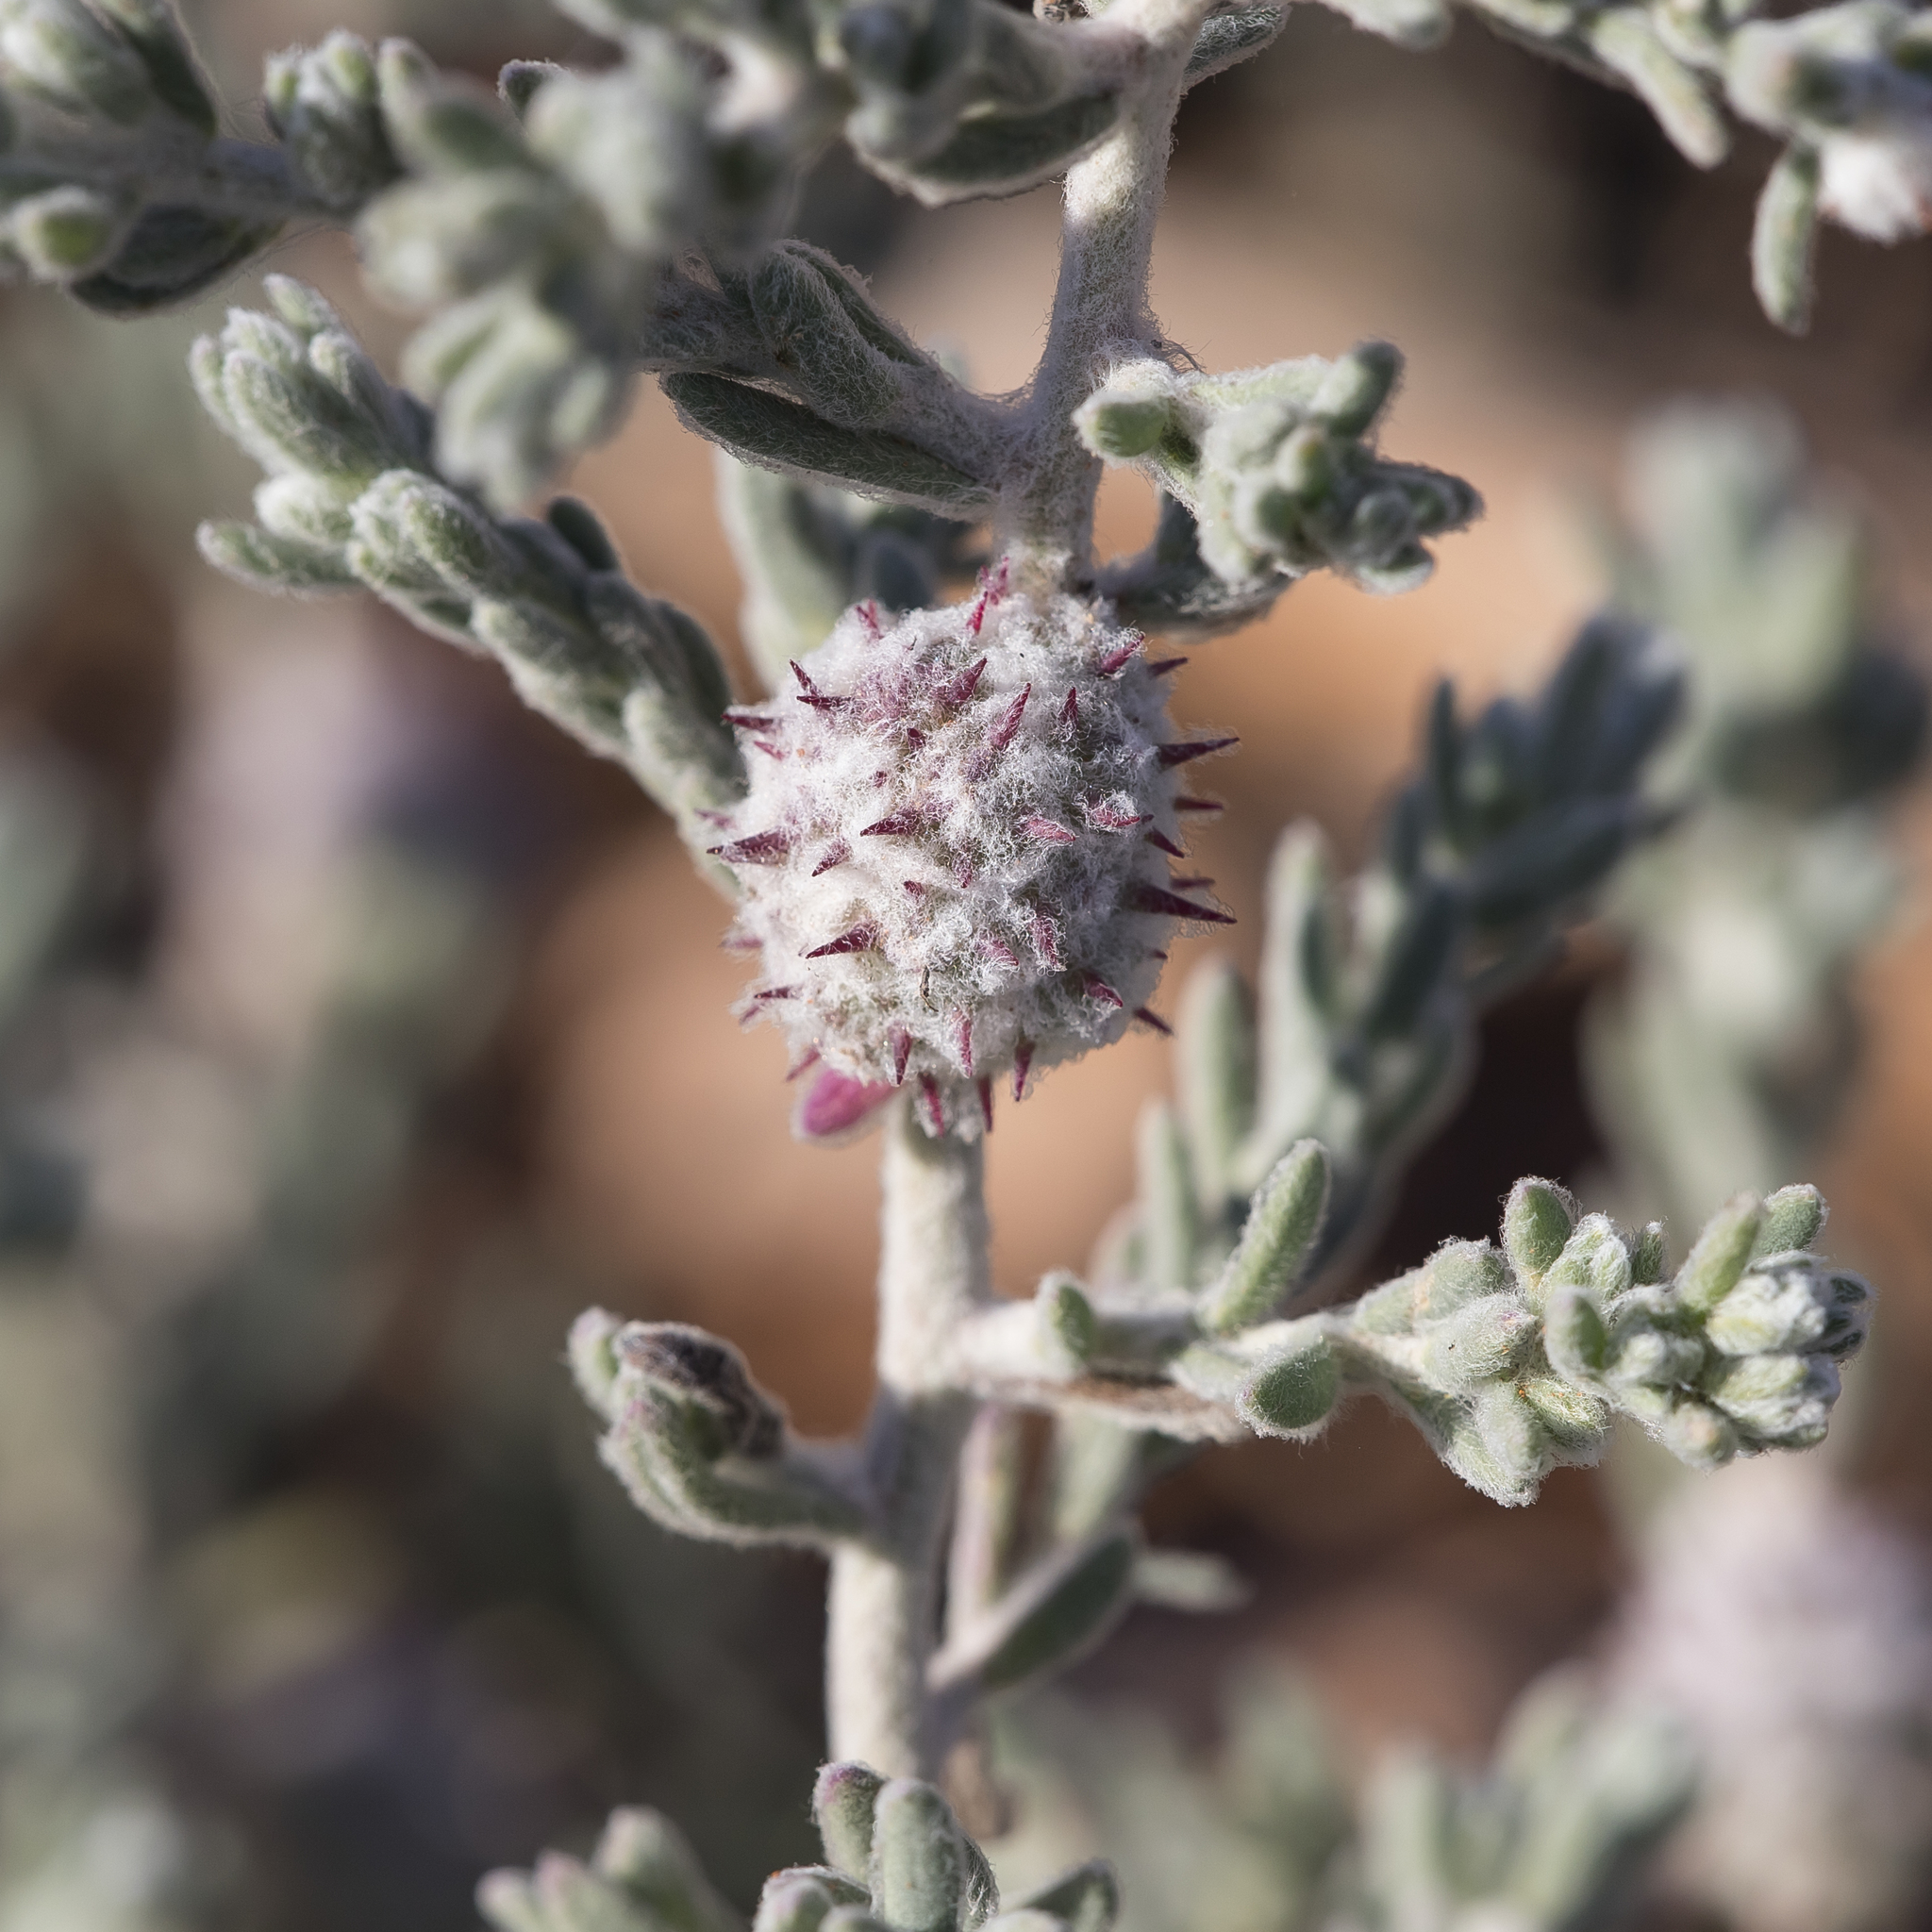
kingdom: Plantae
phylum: Tracheophyta
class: Magnoliopsida
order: Caryophyllales
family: Amaranthaceae
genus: Dissocarpus
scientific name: Dissocarpus paradoxus
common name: Bur-saltbush
